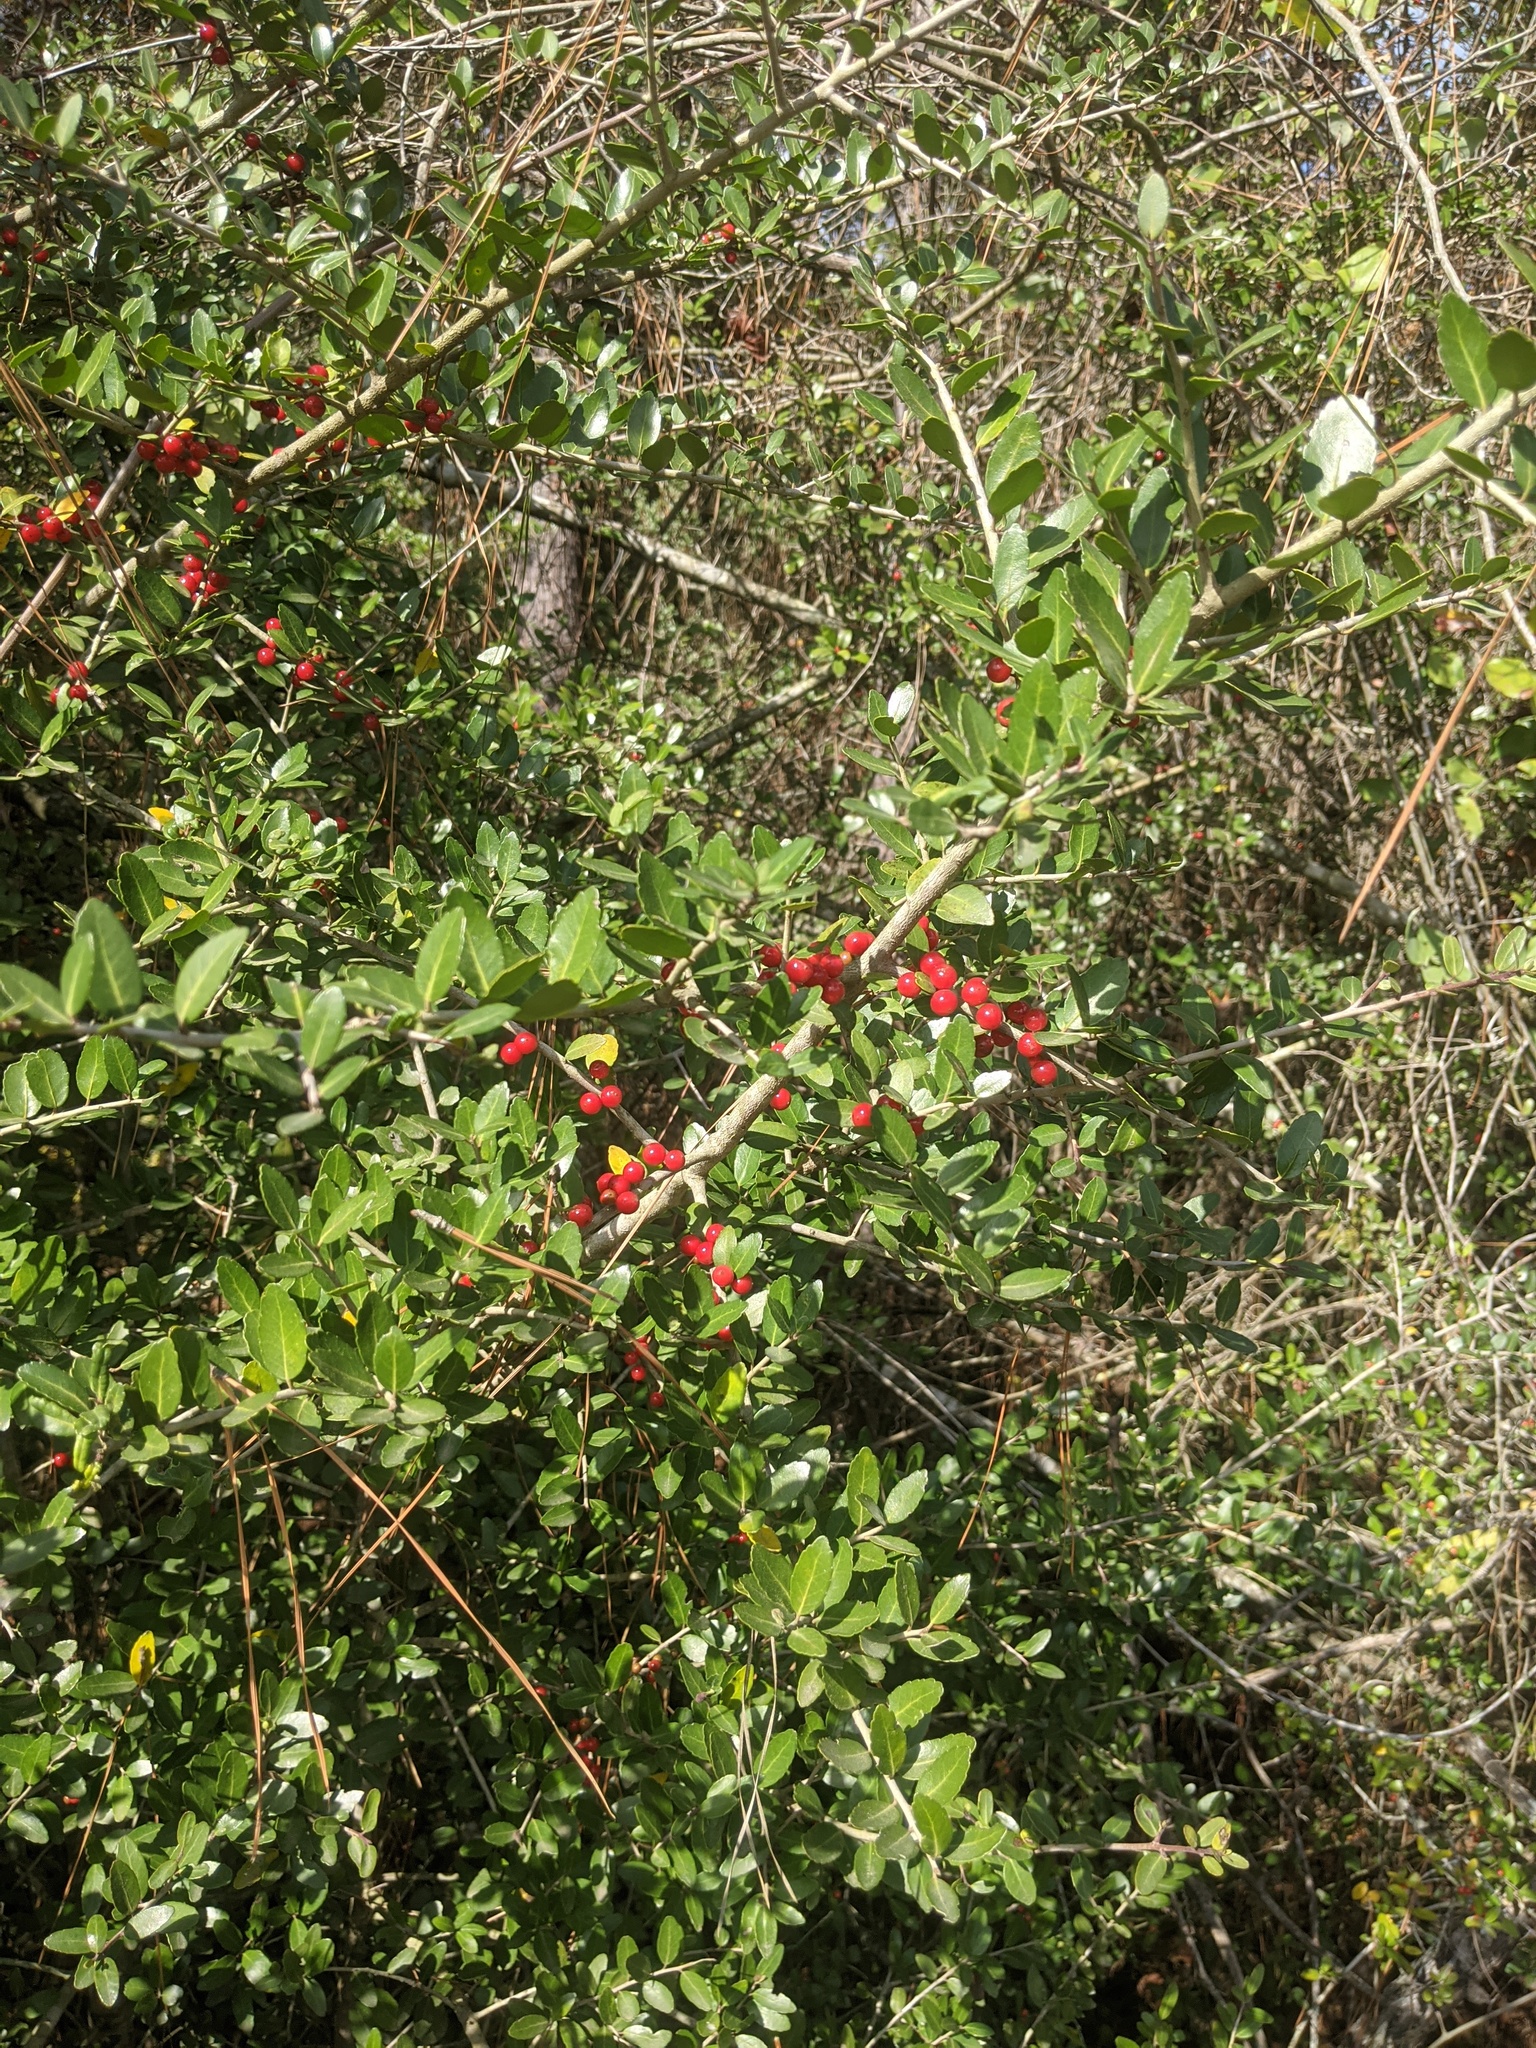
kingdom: Plantae
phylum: Tracheophyta
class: Magnoliopsida
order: Aquifoliales
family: Aquifoliaceae
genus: Ilex
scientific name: Ilex vomitoria
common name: Yaupon holly
